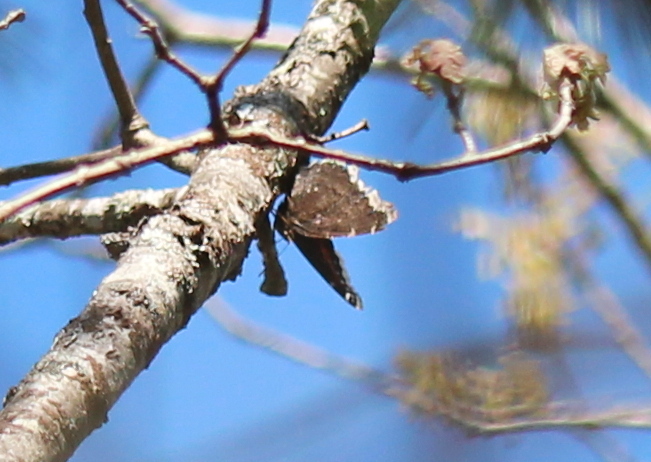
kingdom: Animalia
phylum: Arthropoda
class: Insecta
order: Lepidoptera
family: Nymphalidae
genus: Nymphalis
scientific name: Nymphalis antiopa
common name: Camberwell beauty
